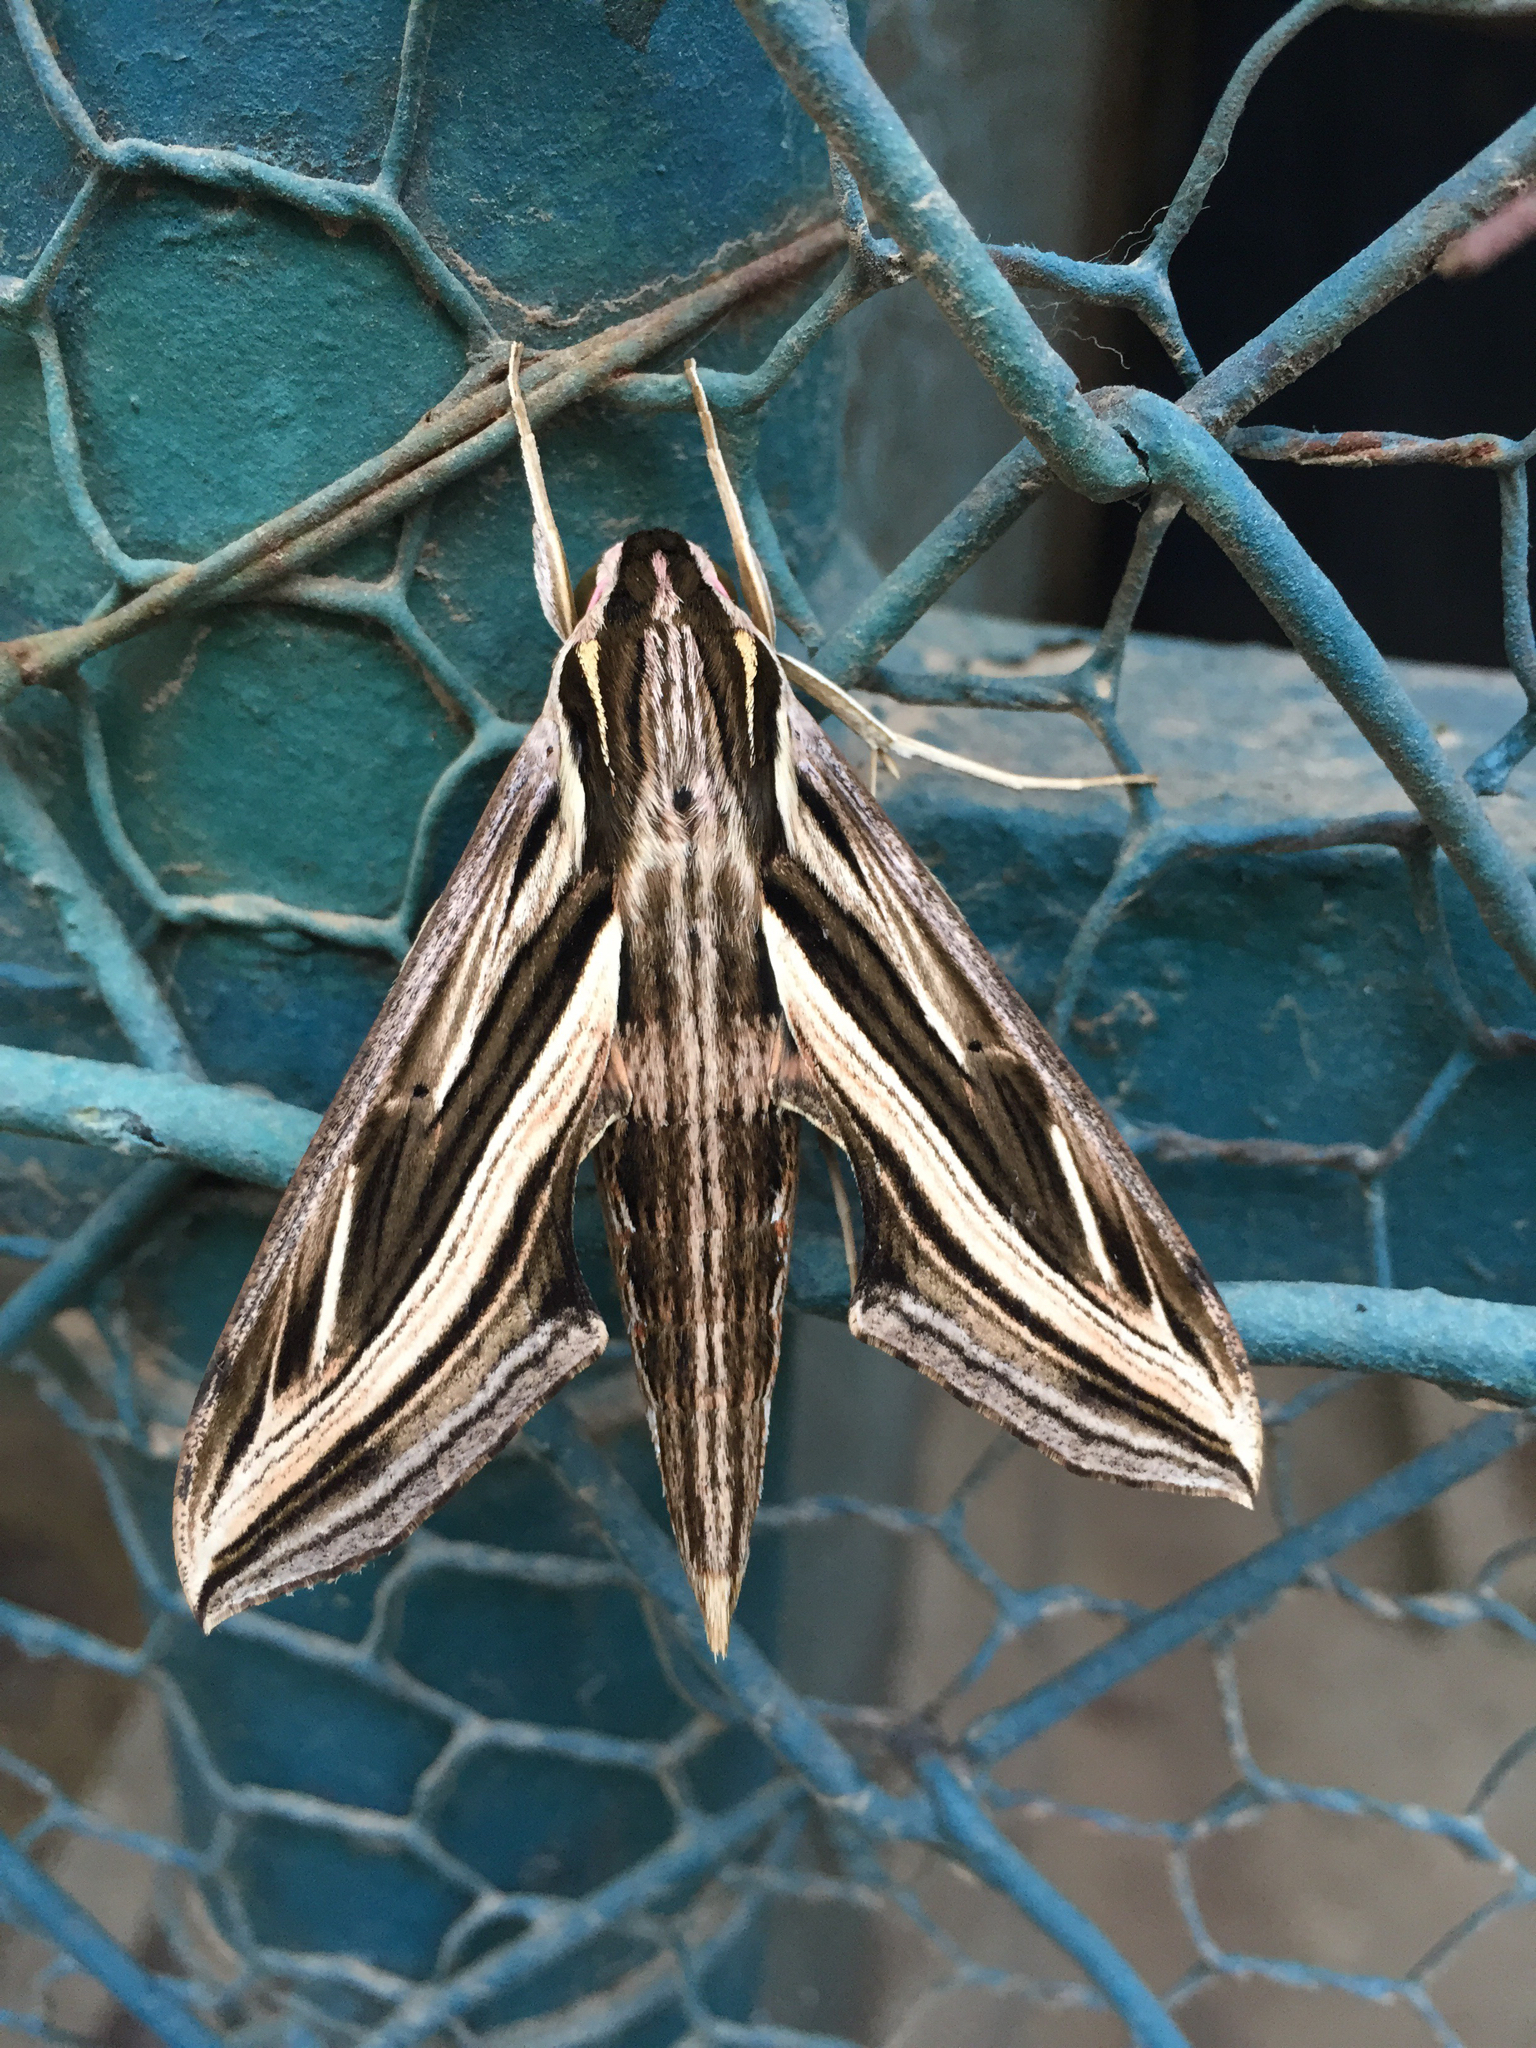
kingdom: Animalia
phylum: Arthropoda
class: Insecta
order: Lepidoptera
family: Sphingidae
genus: Hippotion
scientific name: Hippotion geryon
